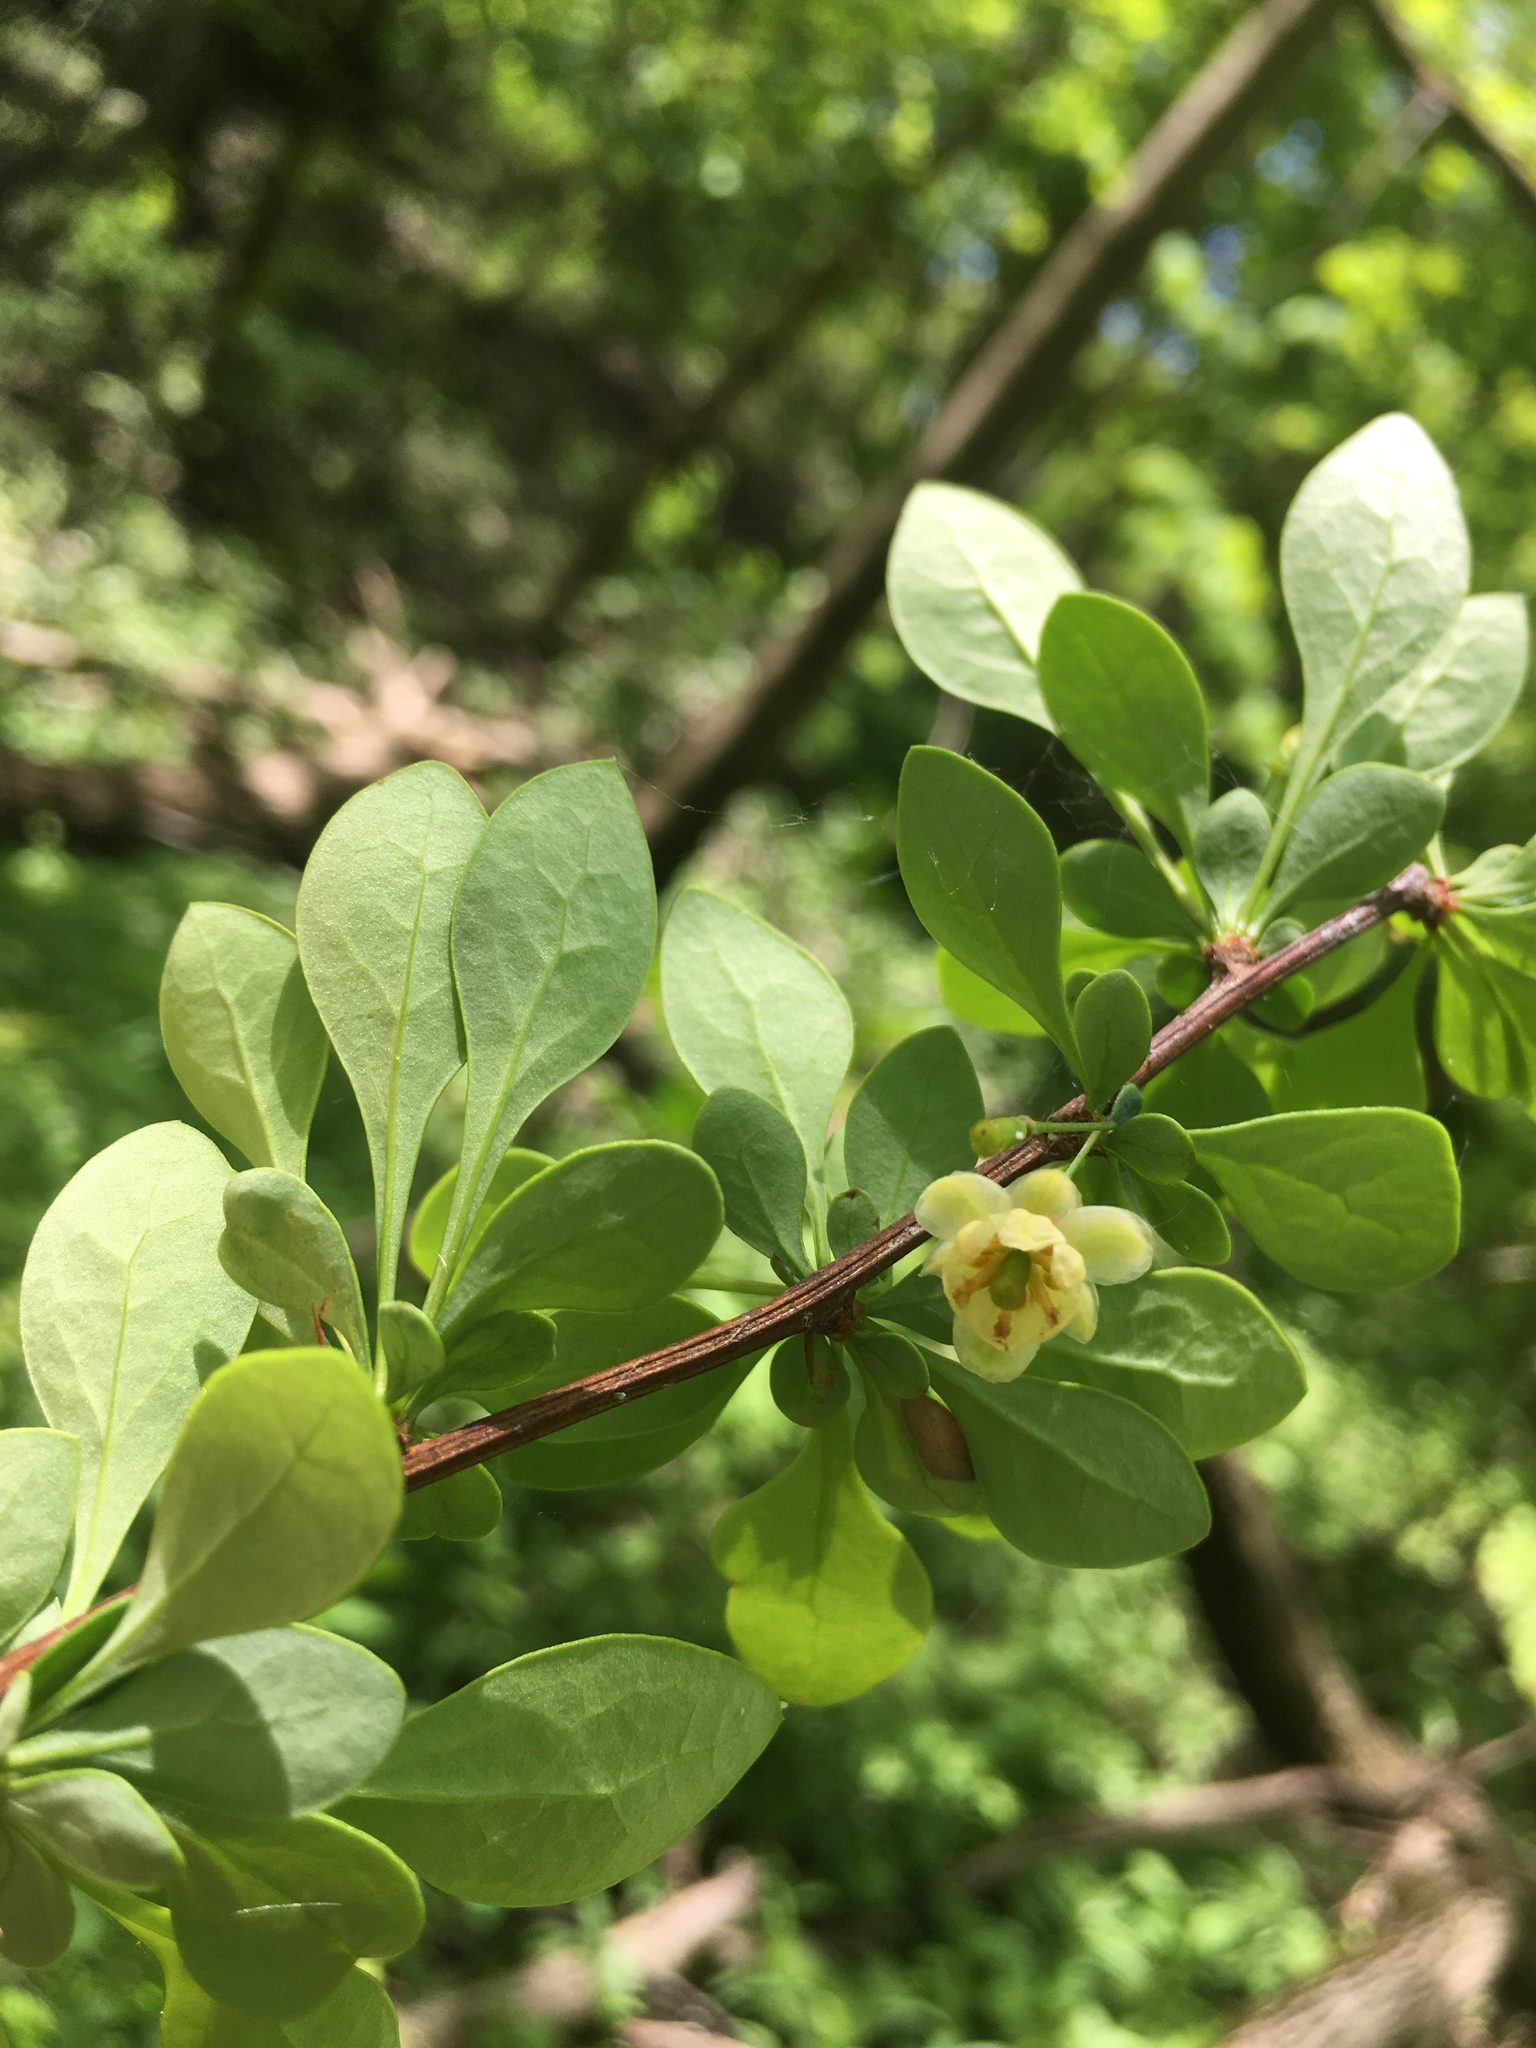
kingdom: Plantae
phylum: Tracheophyta
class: Magnoliopsida
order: Ranunculales
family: Berberidaceae
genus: Berberis
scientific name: Berberis thunbergii
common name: Japanese barberry
